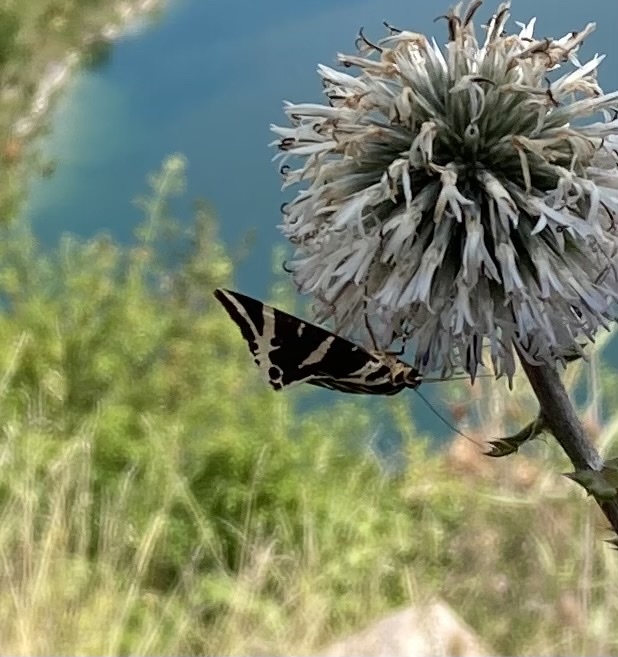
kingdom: Animalia
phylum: Arthropoda
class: Insecta
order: Lepidoptera
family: Erebidae
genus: Euplagia
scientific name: Euplagia quadripunctaria
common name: Jersey tiger
